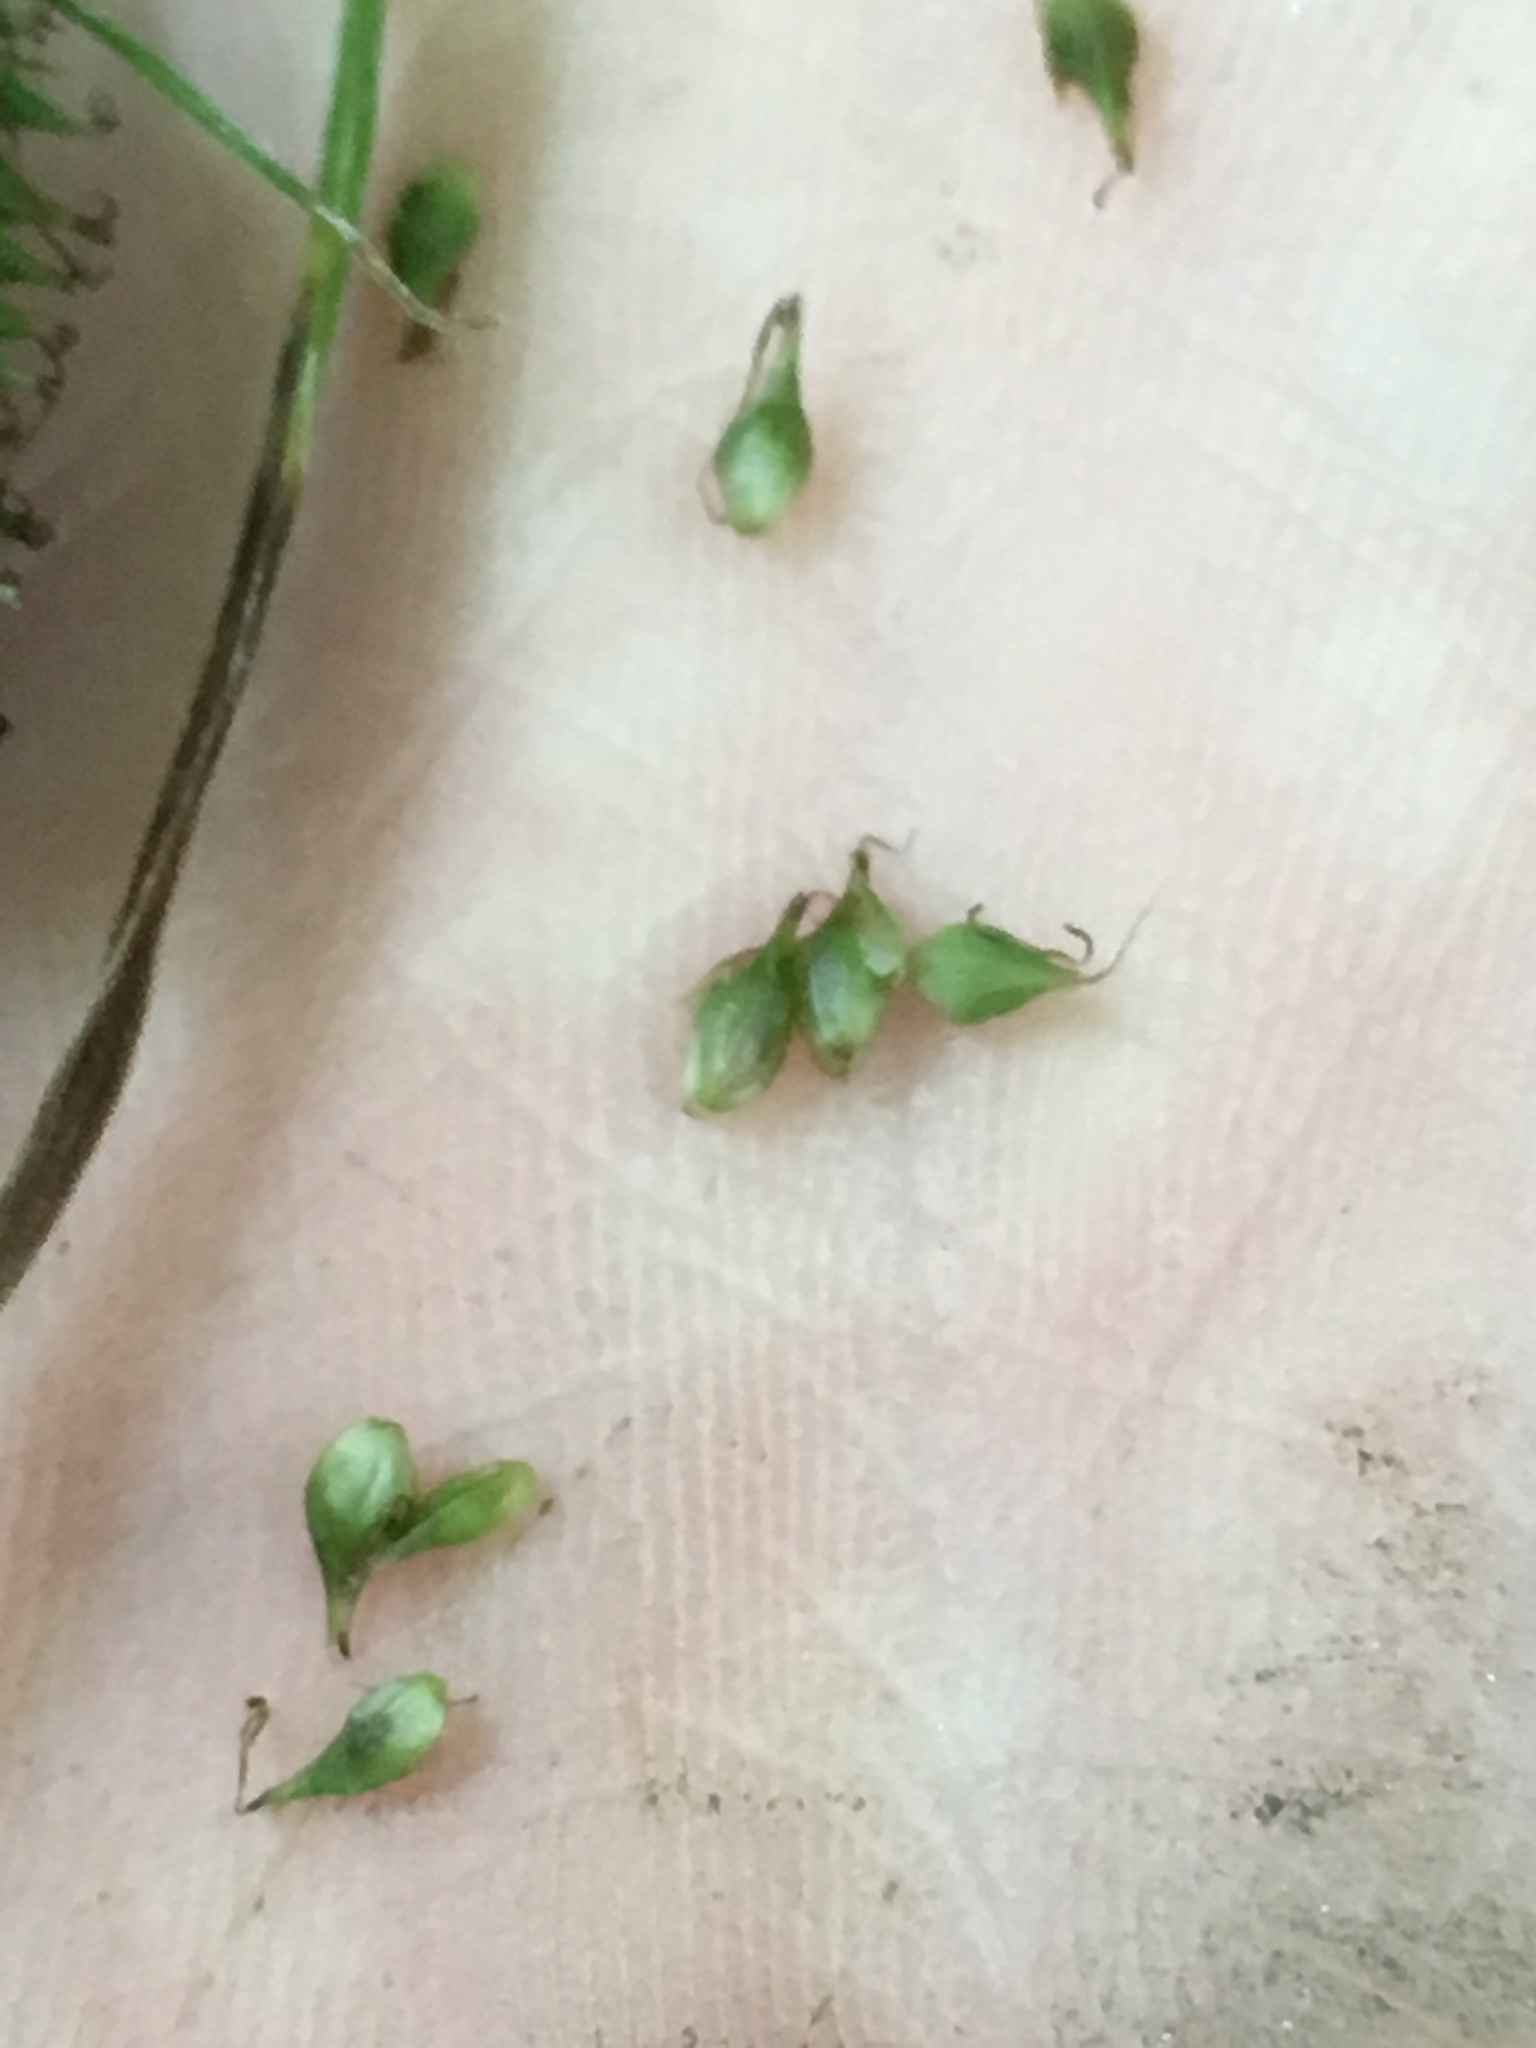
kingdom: Plantae
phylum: Tracheophyta
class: Liliopsida
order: Poales
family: Cyperaceae
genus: Carex
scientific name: Carex scabrata
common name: Eastern rough sedge
